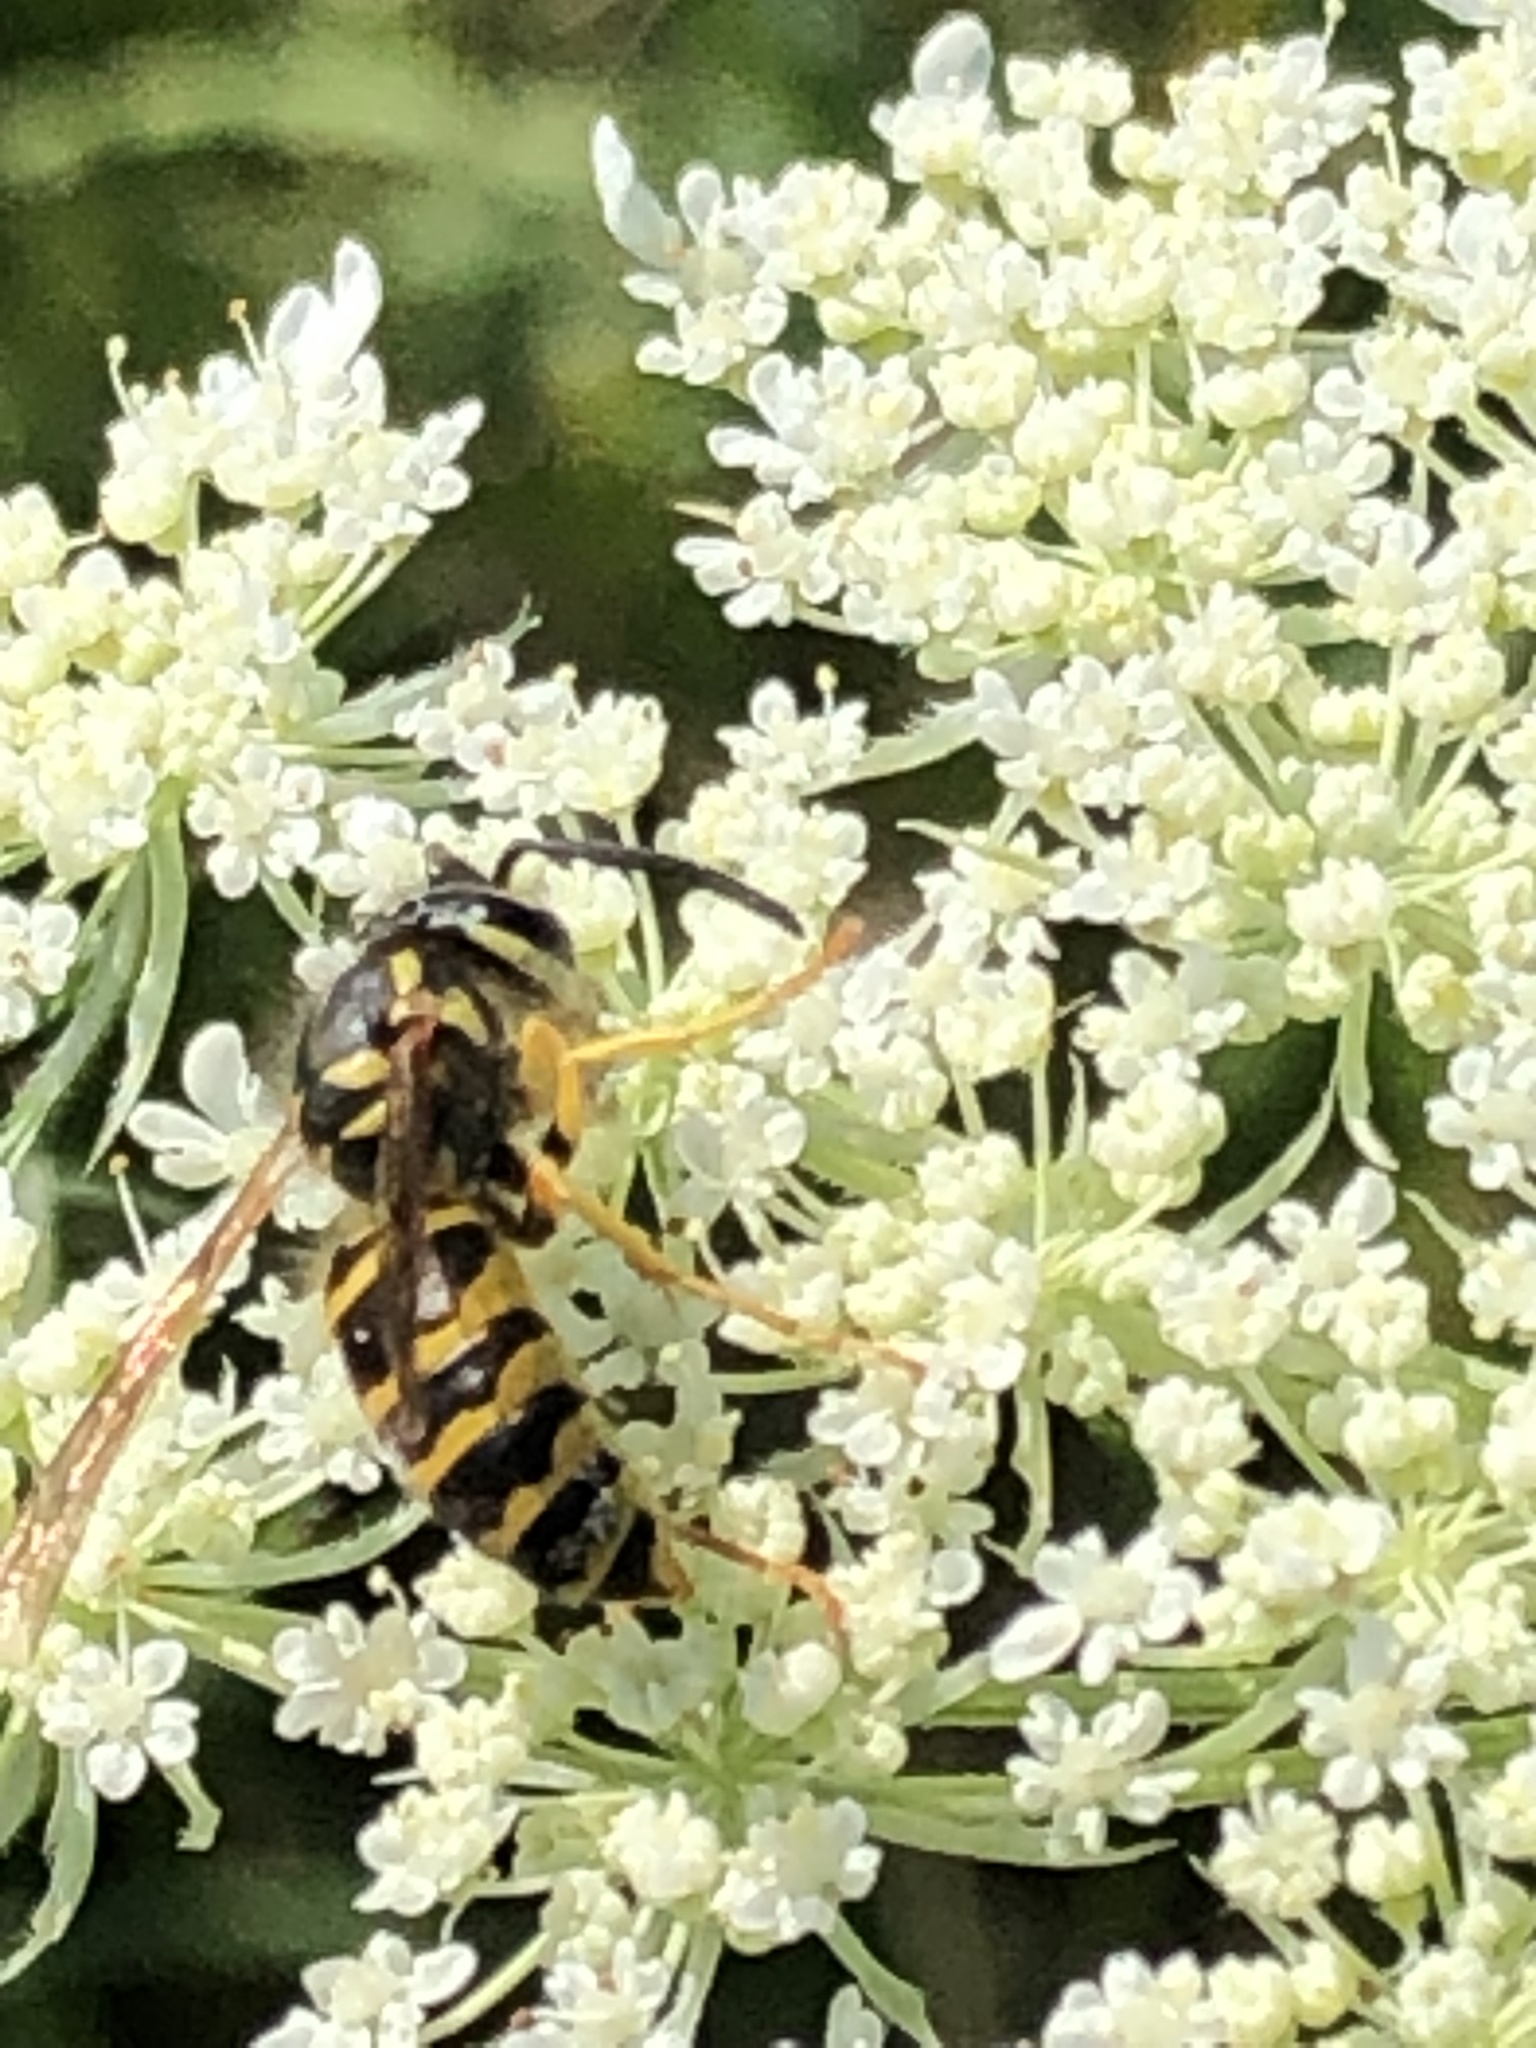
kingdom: Animalia
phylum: Arthropoda
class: Insecta
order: Hymenoptera
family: Vespidae
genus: Vespula
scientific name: Vespula maculifrons
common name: Eastern yellowjacket
